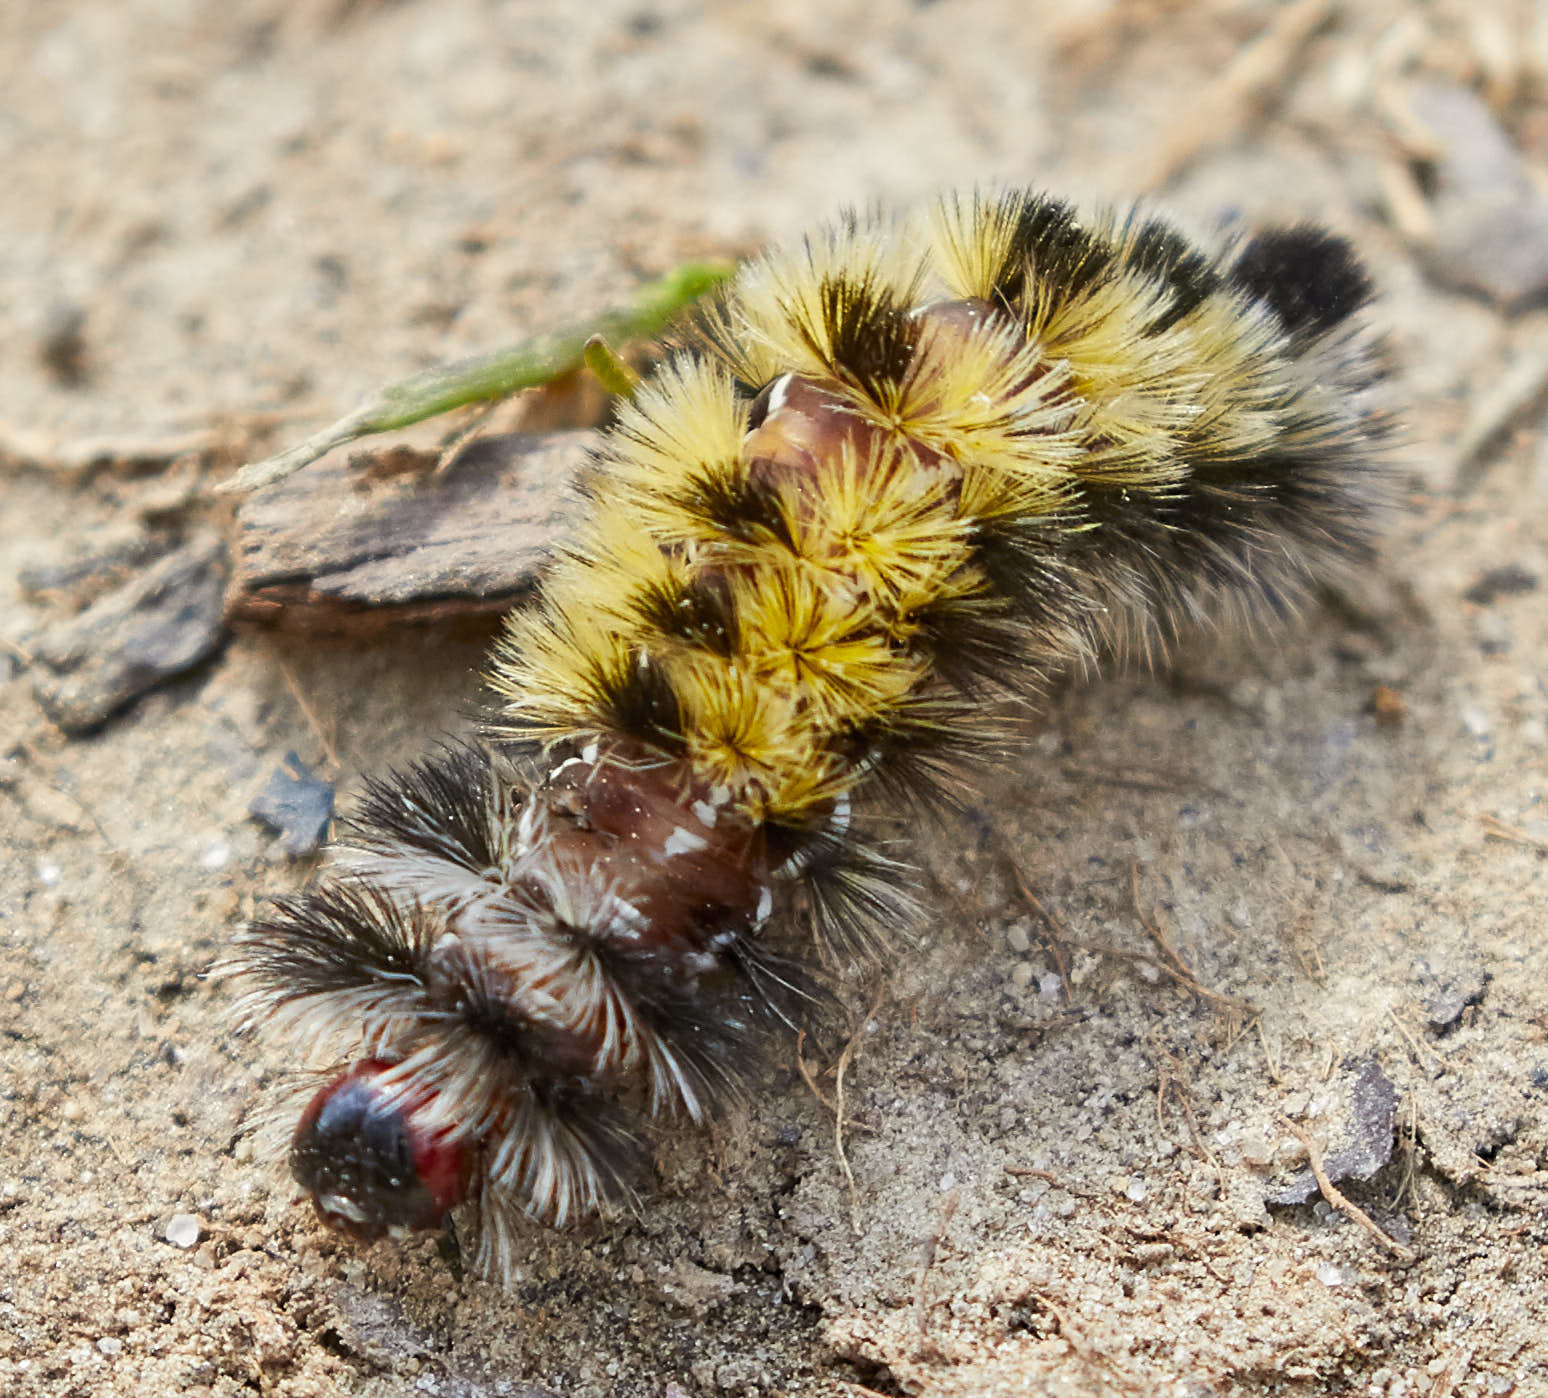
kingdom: Animalia
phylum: Arthropoda
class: Insecta
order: Lepidoptera
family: Erebidae
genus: Ctenucha
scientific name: Ctenucha virginica
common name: Virginia ctenucha moth
